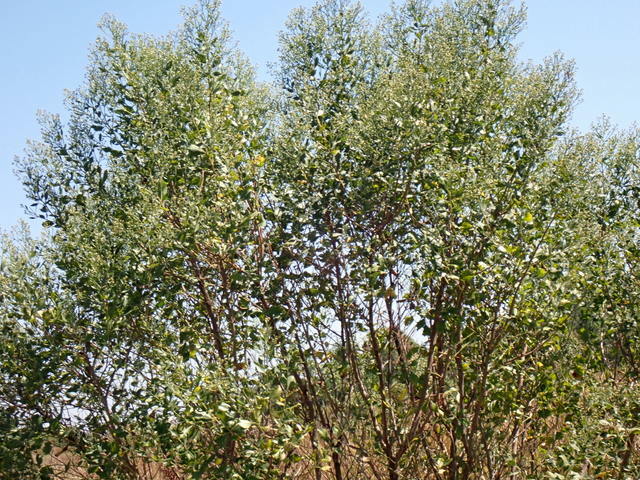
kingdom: Plantae
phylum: Tracheophyta
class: Magnoliopsida
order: Asterales
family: Asteraceae
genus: Baccharis
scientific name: Baccharis halimifolia
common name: Eastern baccharis
